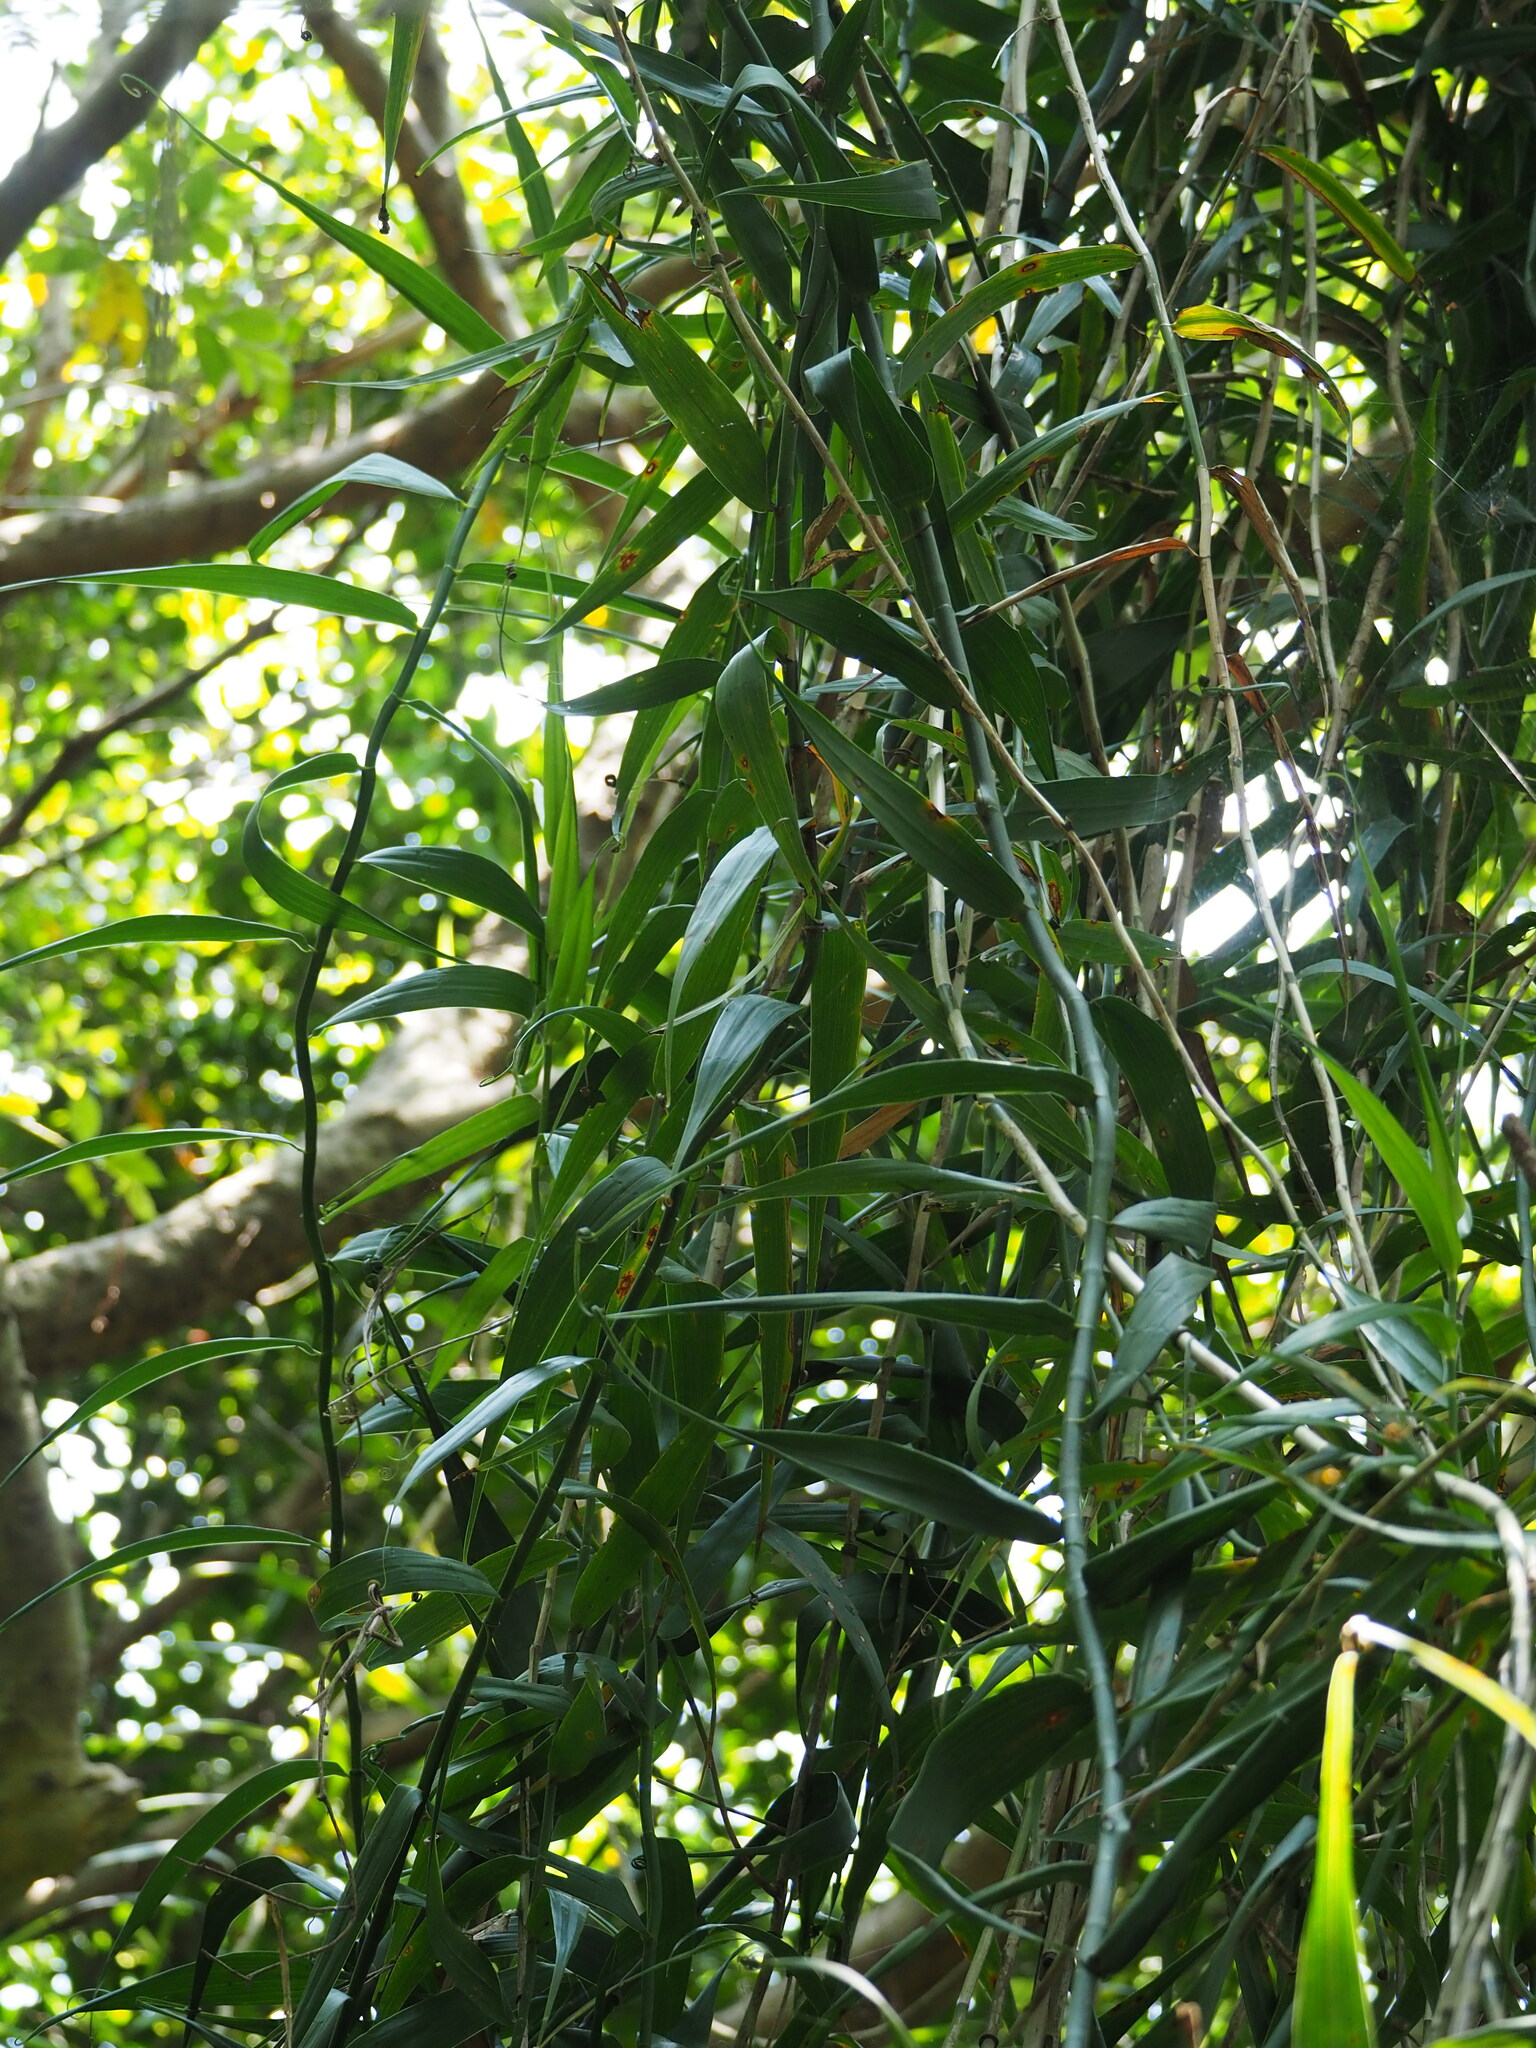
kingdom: Plantae
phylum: Tracheophyta
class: Liliopsida
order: Poales
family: Flagellariaceae
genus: Flagellaria
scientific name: Flagellaria indica
